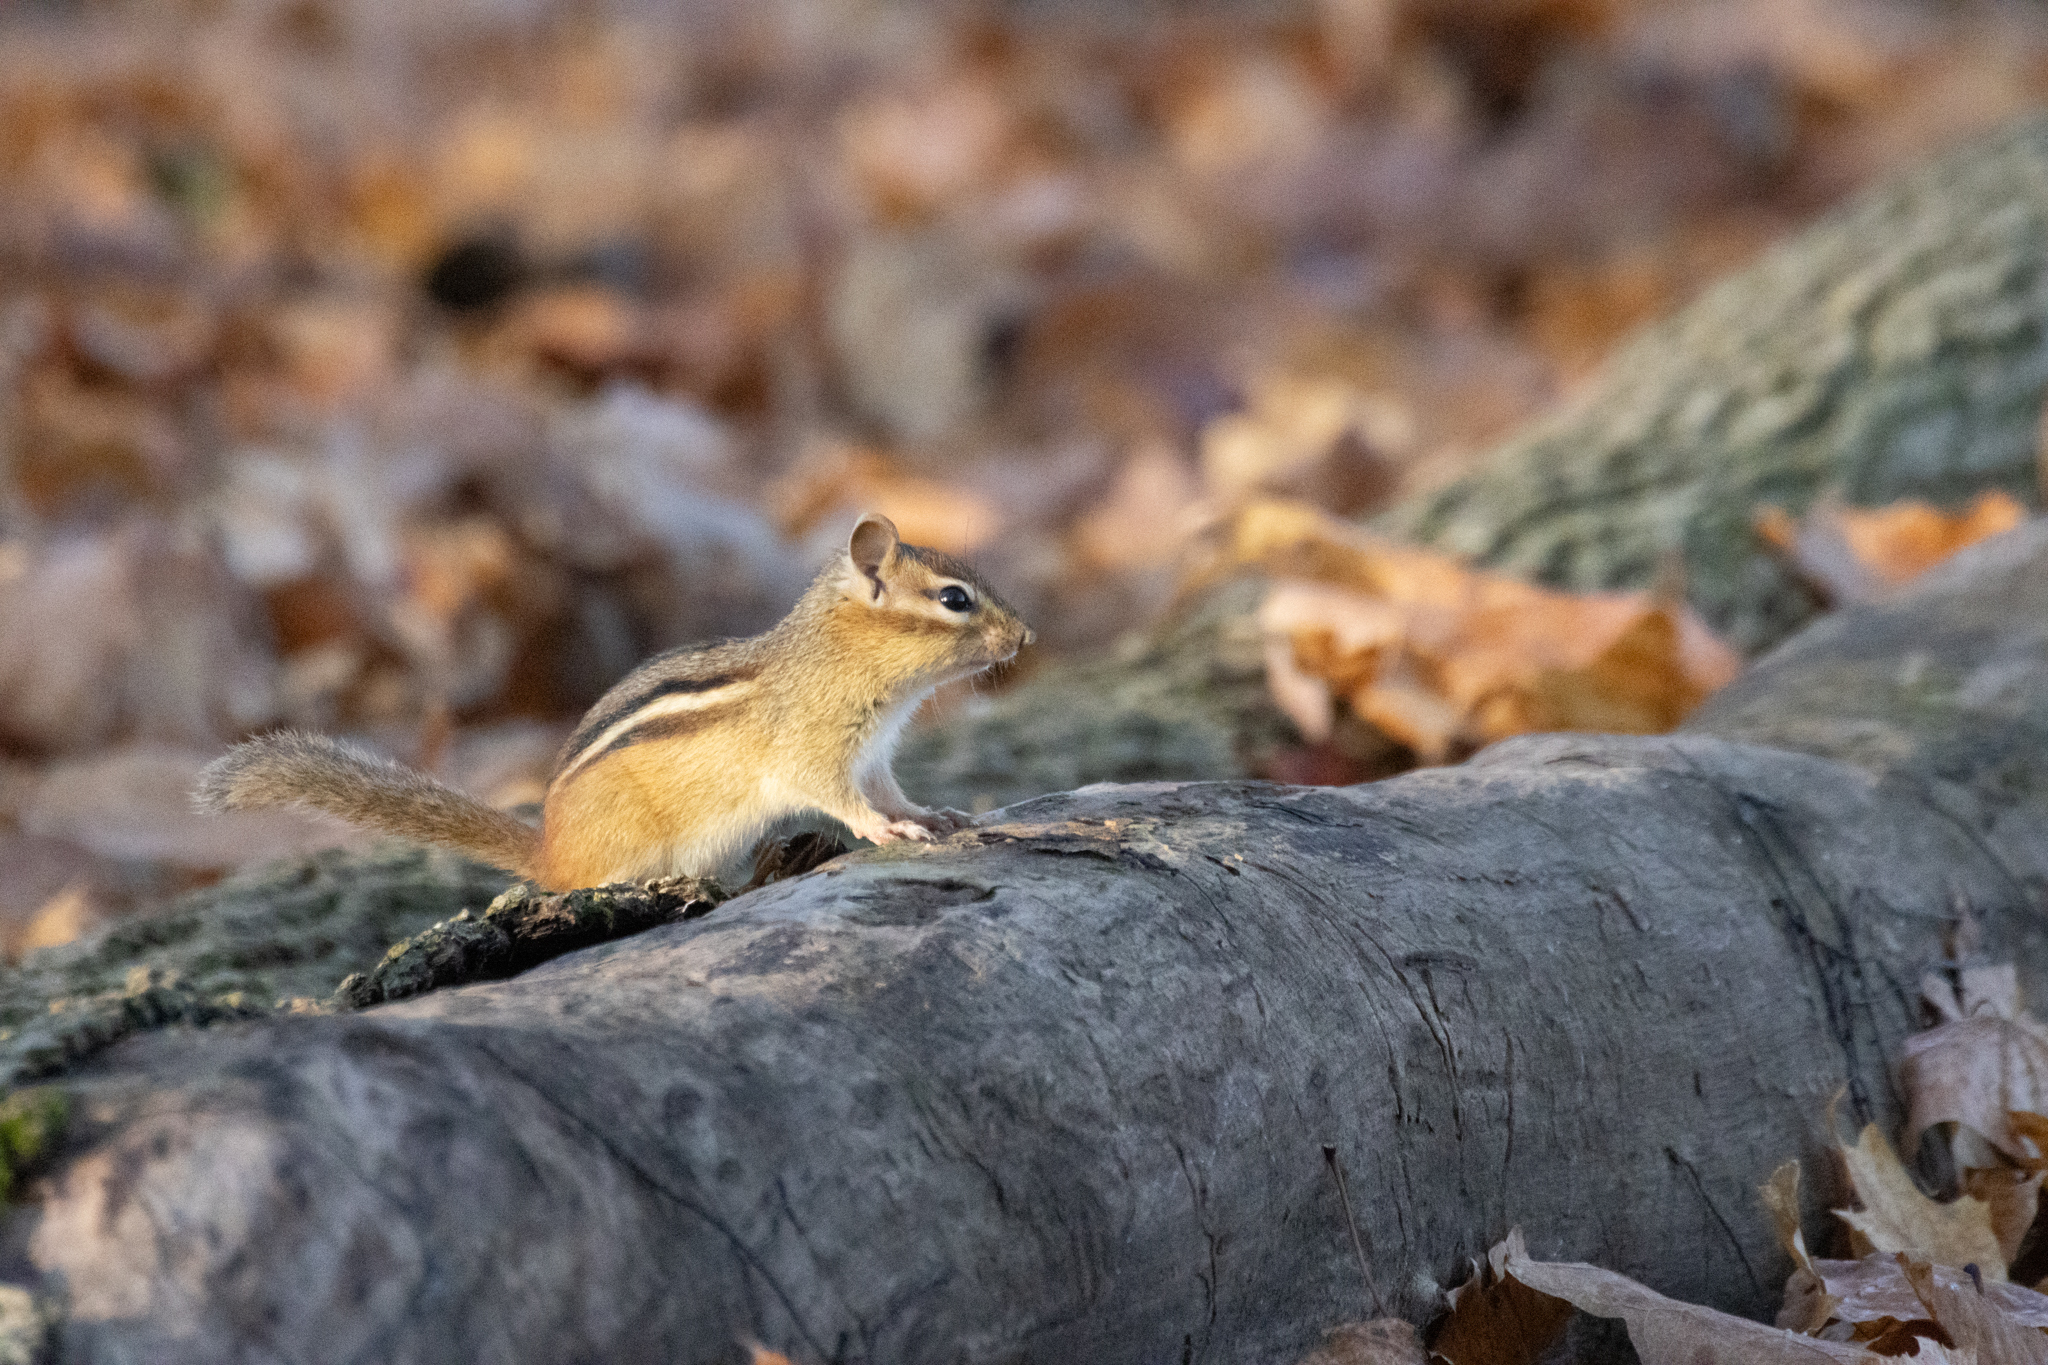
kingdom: Animalia
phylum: Chordata
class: Mammalia
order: Rodentia
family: Sciuridae
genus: Tamias
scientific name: Tamias striatus
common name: Eastern chipmunk
